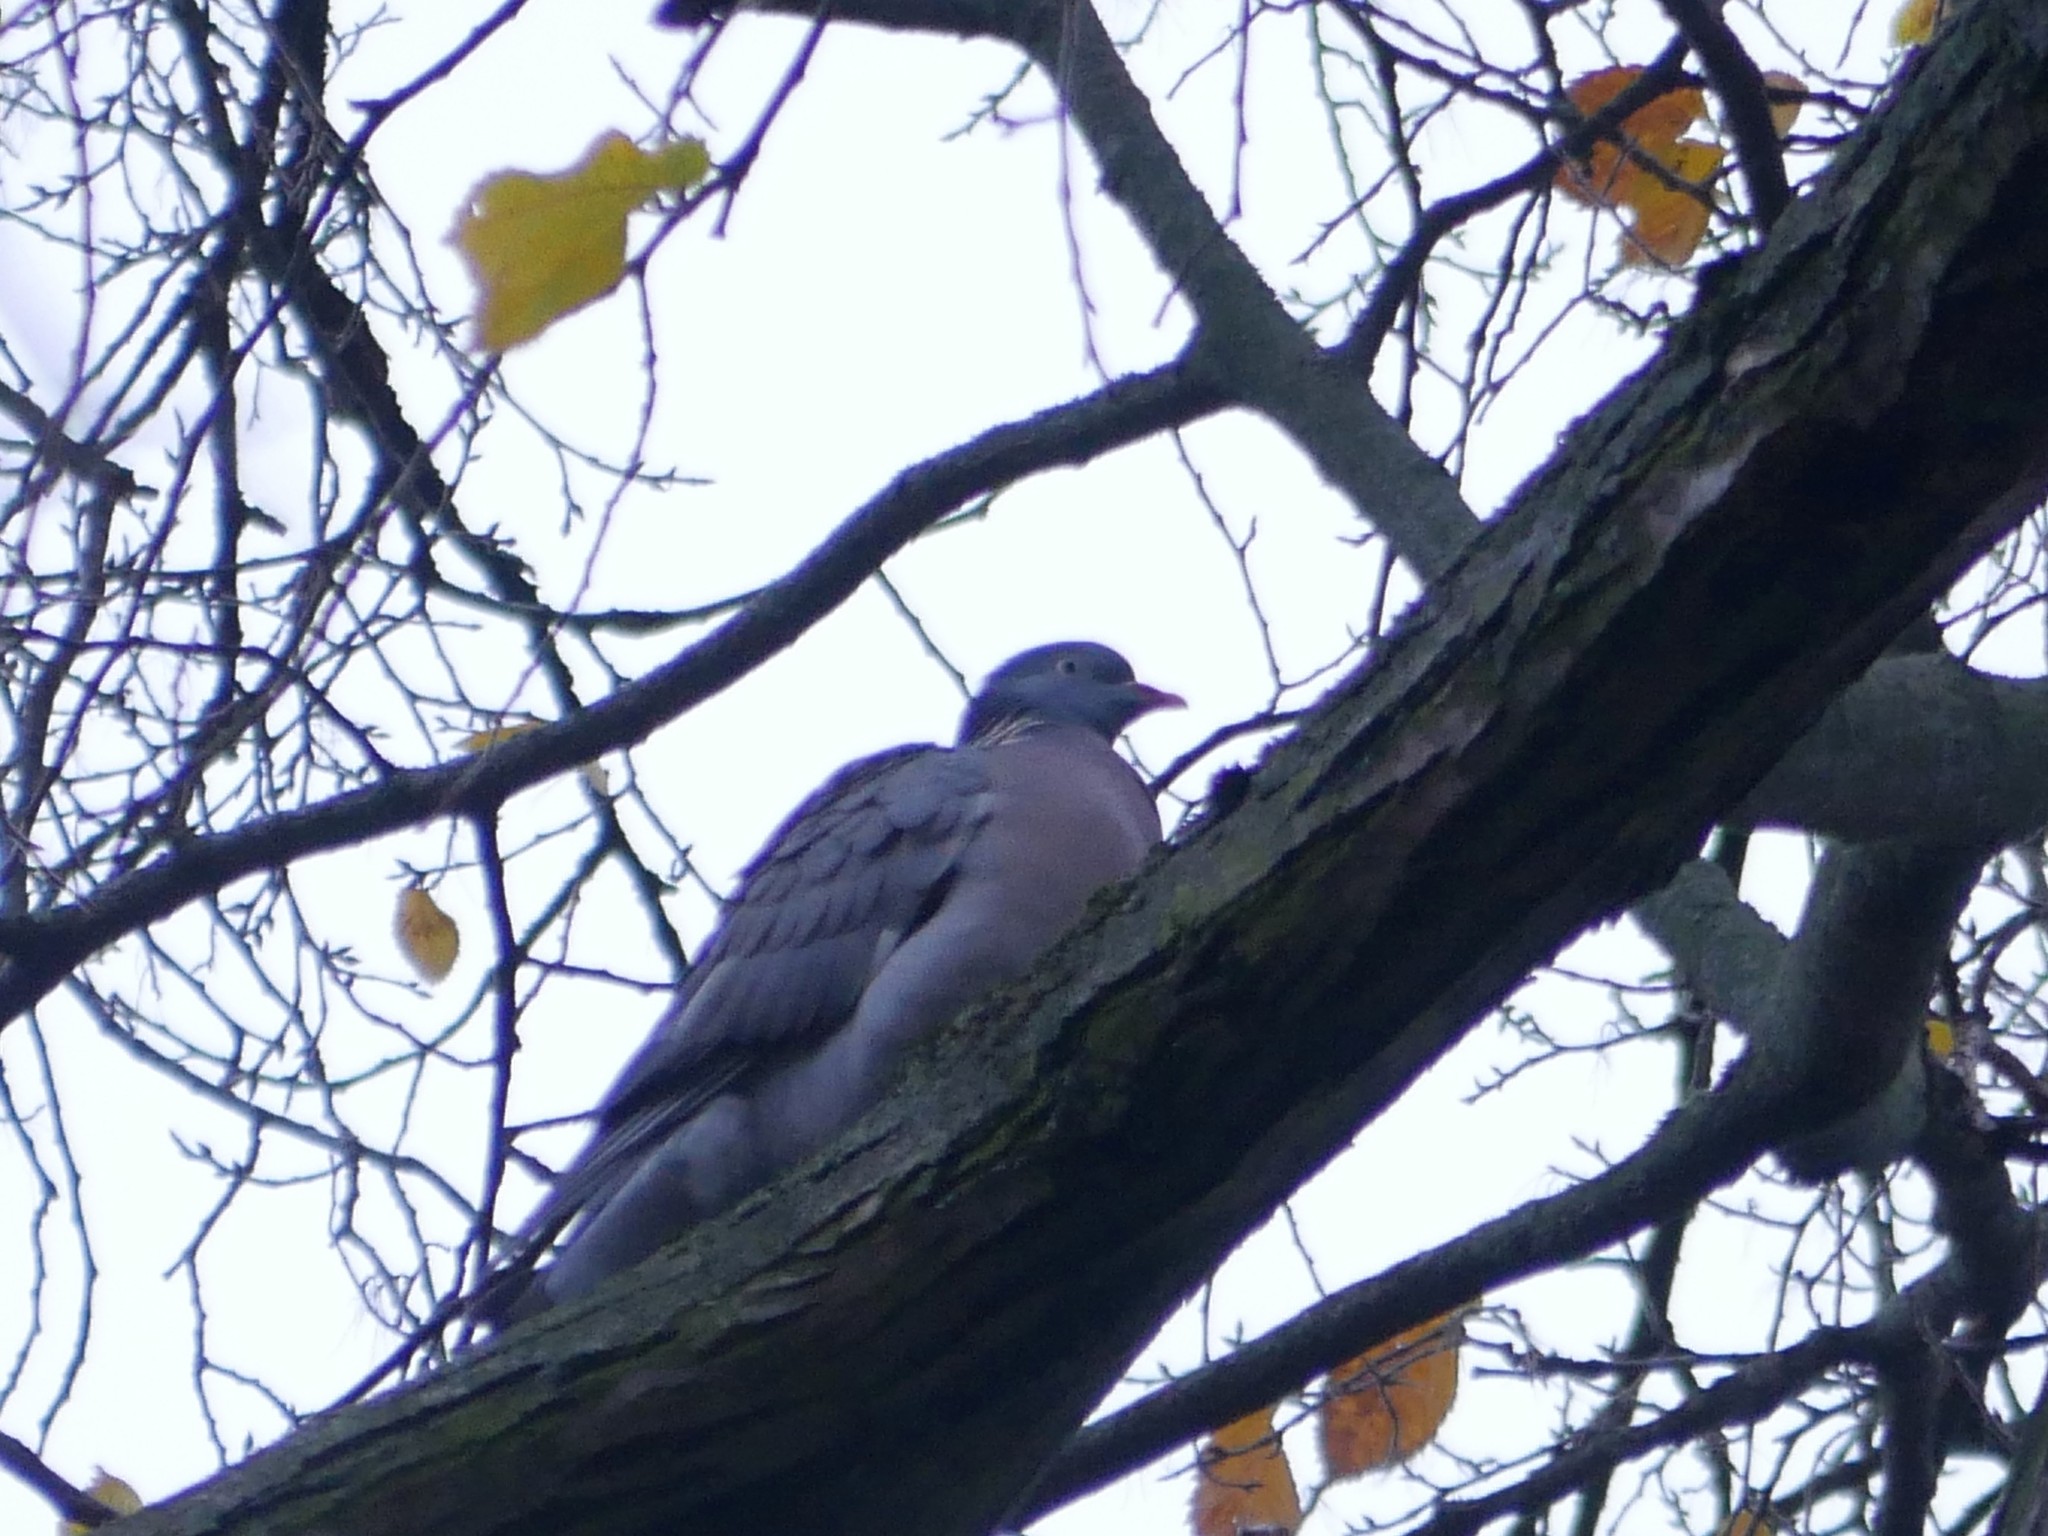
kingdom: Animalia
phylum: Chordata
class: Aves
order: Columbiformes
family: Columbidae
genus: Columba
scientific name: Columba palumbus
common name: Common wood pigeon
